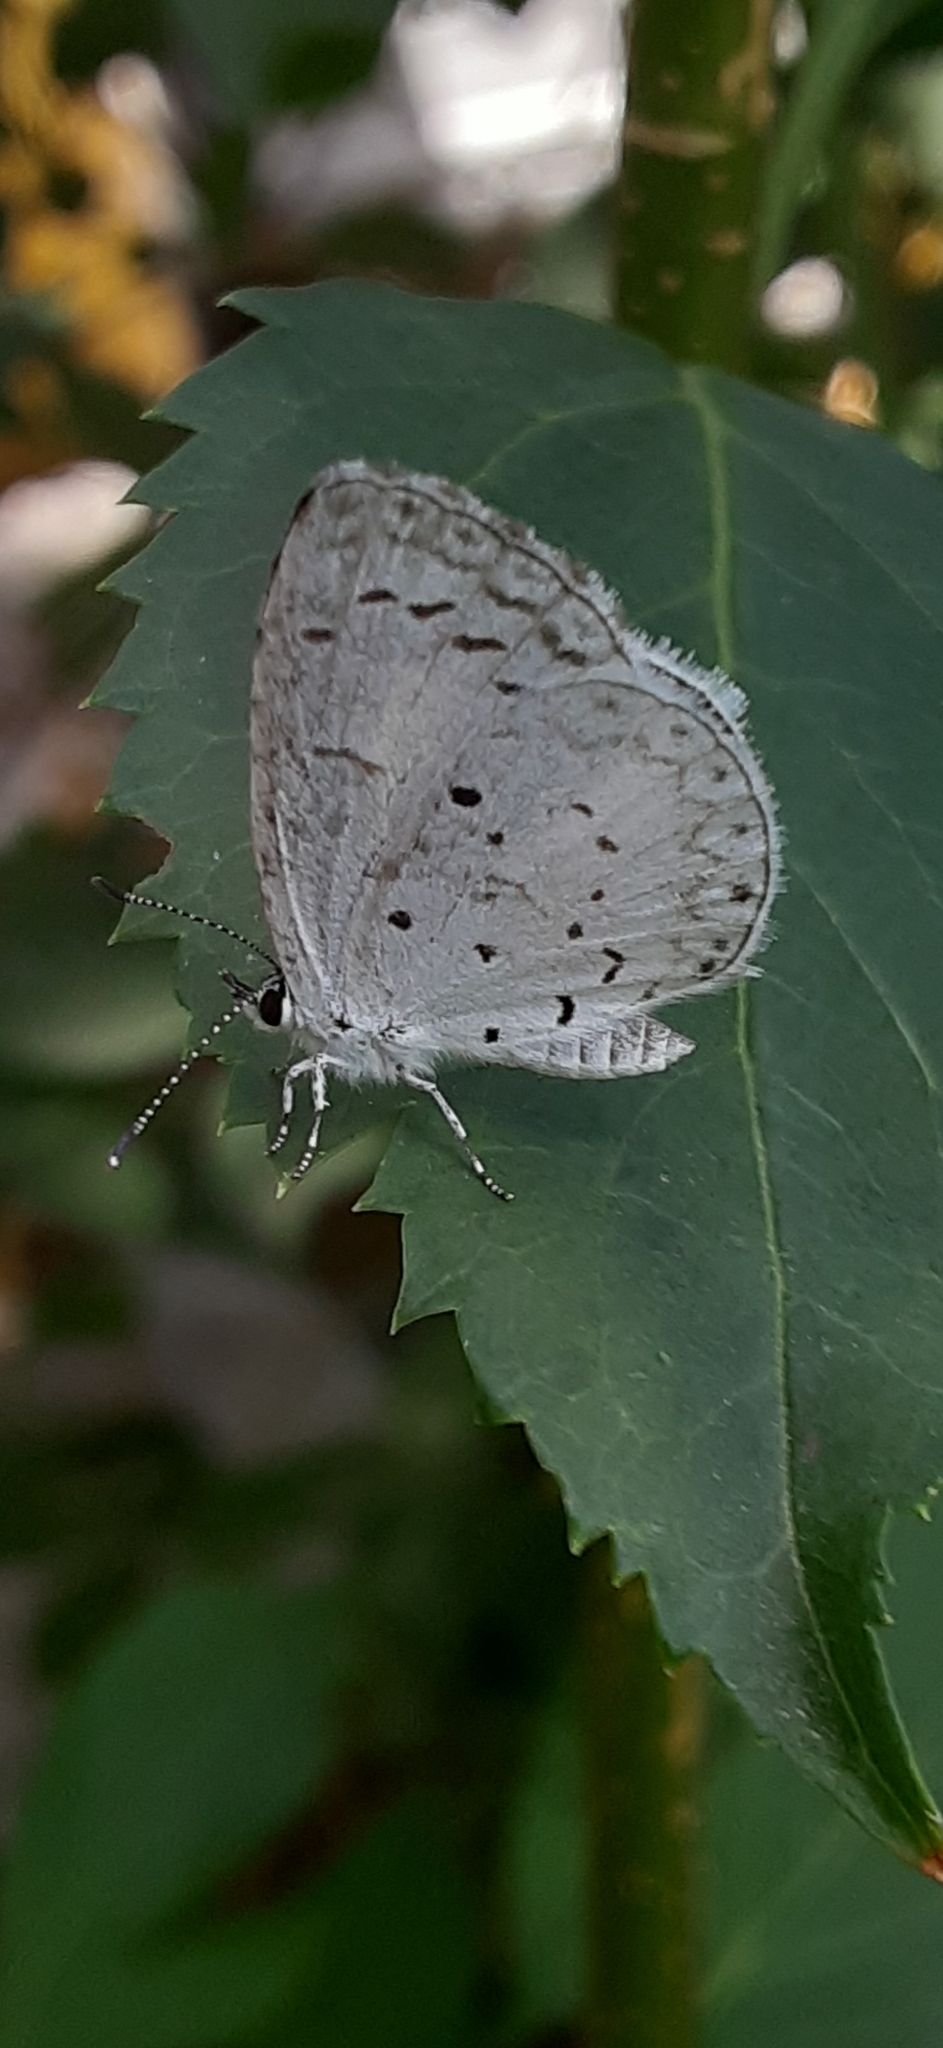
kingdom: Animalia
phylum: Arthropoda
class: Insecta
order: Lepidoptera
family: Lycaenidae
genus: Cyaniris
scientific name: Cyaniris neglecta
